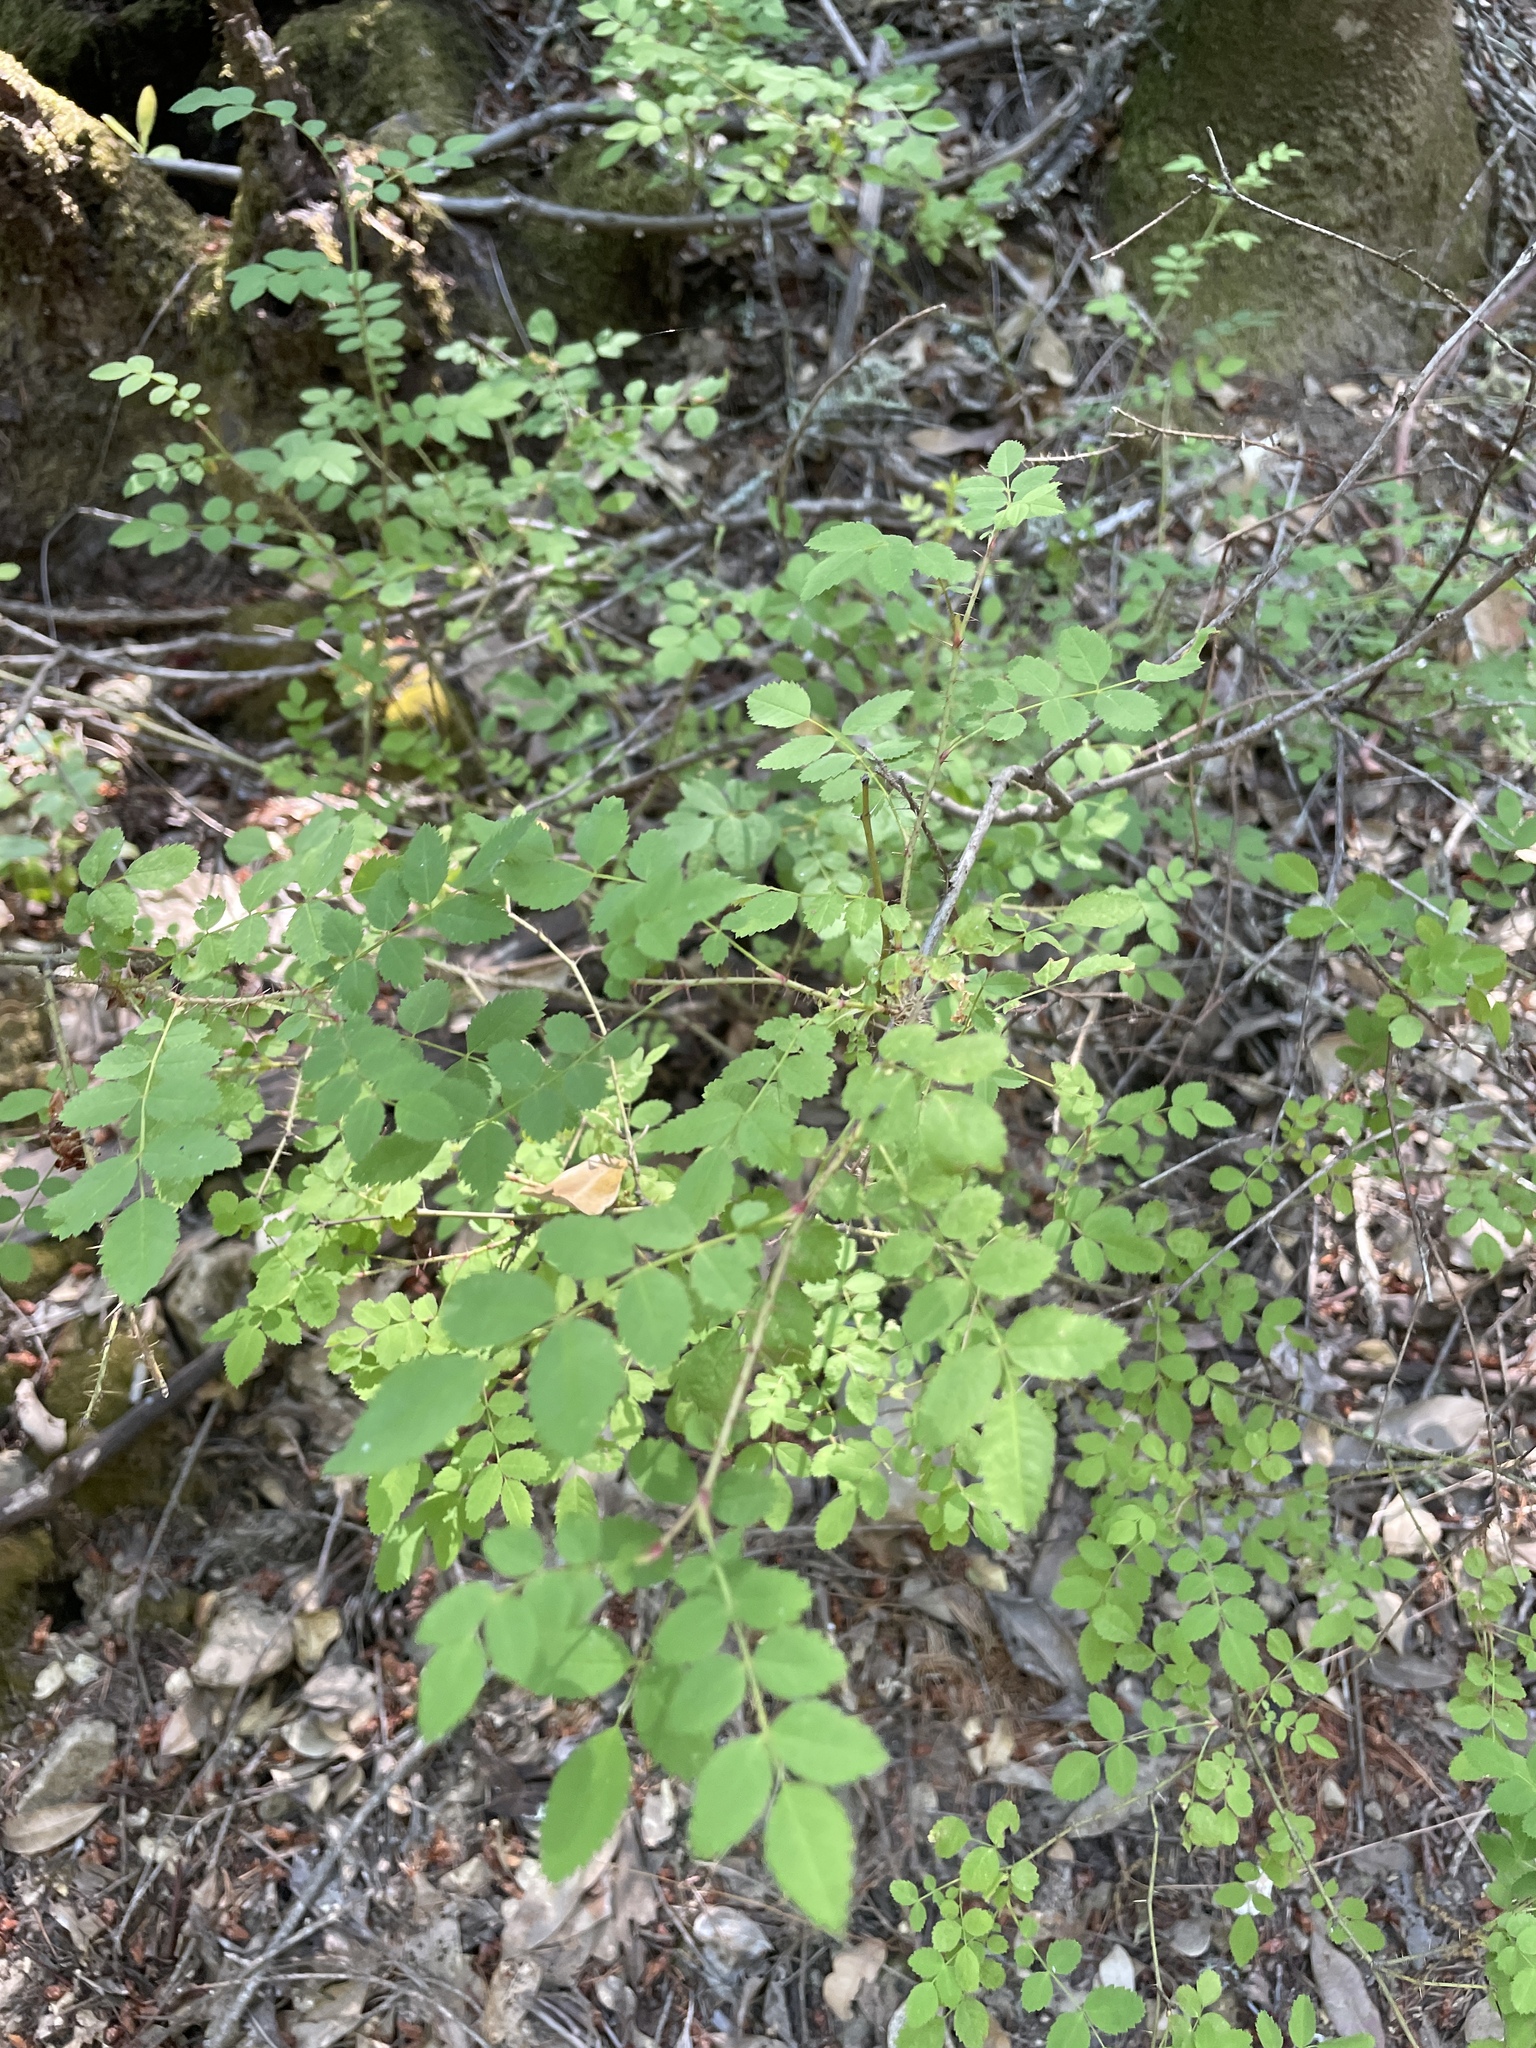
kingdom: Plantae
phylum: Tracheophyta
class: Magnoliopsida
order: Rosales
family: Rosaceae
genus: Rosa
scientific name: Rosa gymnocarpa
